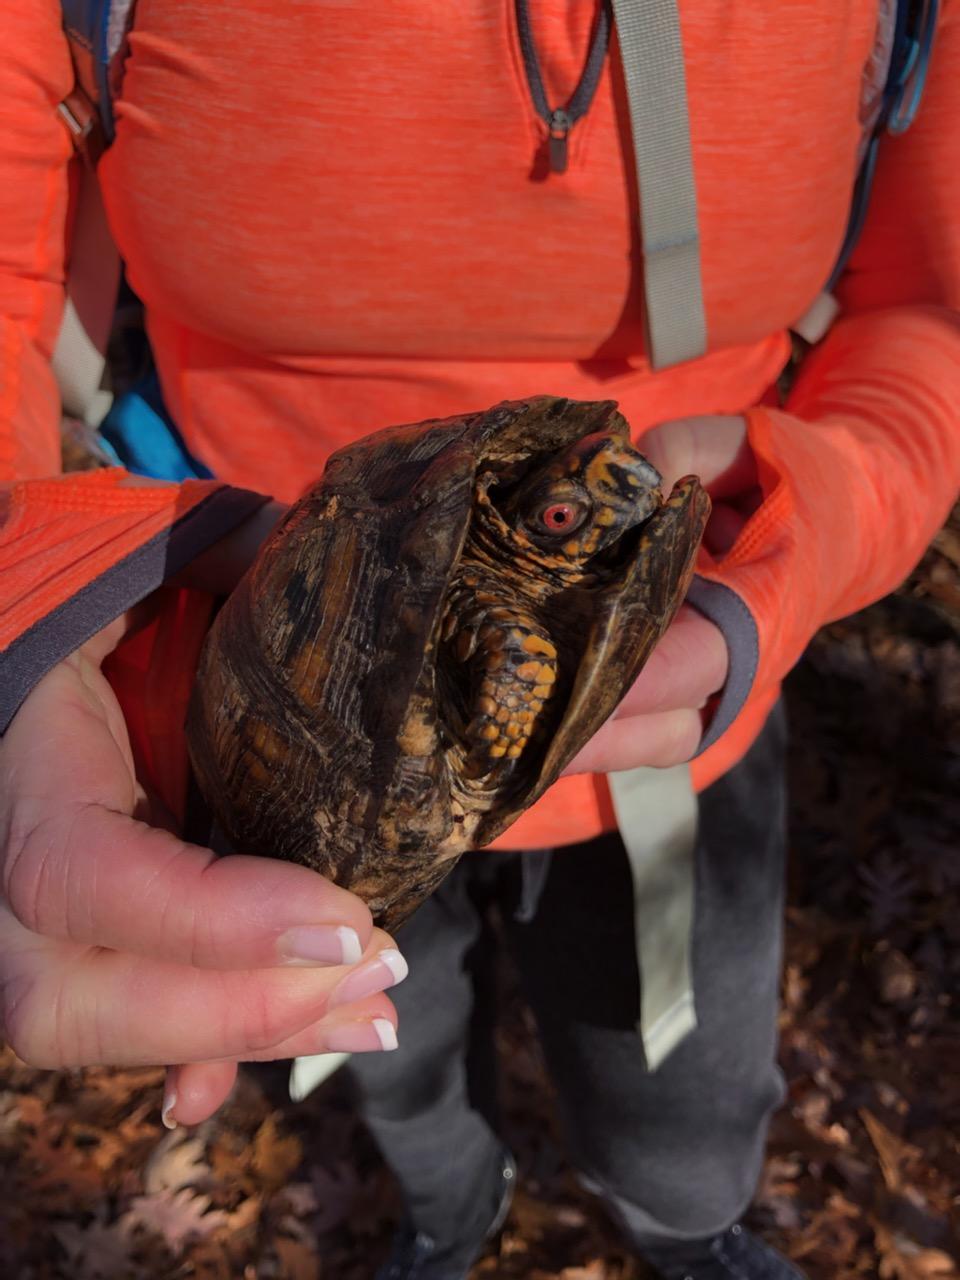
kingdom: Animalia
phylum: Chordata
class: Testudines
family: Emydidae
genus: Terrapene
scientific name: Terrapene carolina
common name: Common box turtle
